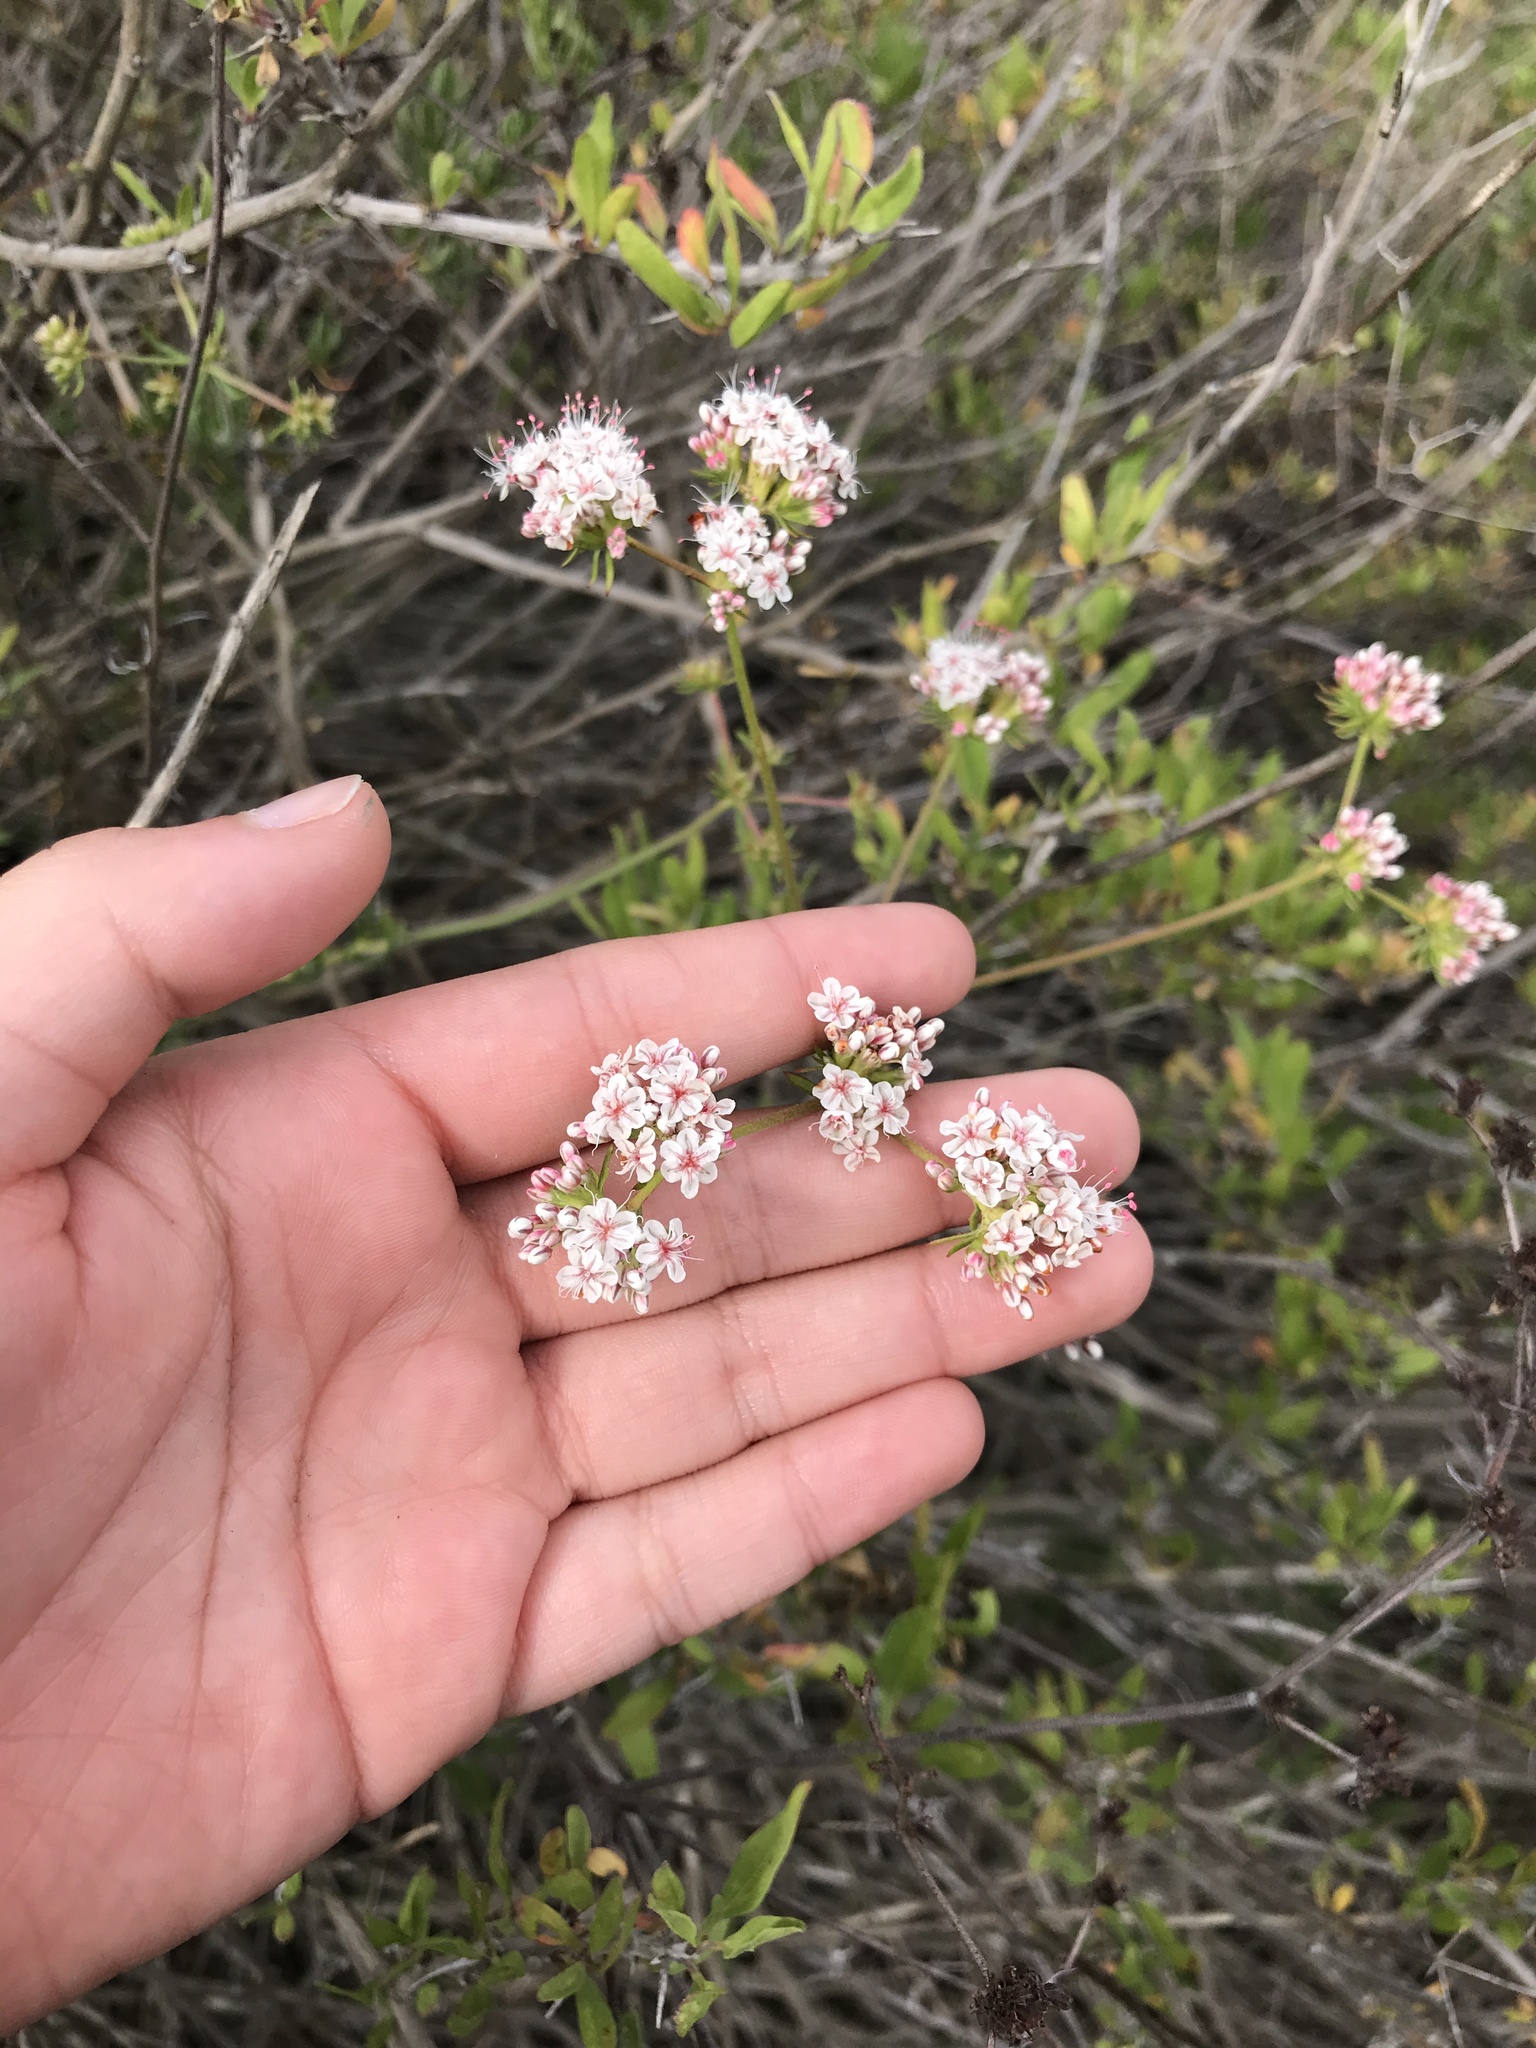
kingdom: Plantae
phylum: Tracheophyta
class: Magnoliopsida
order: Caryophyllales
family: Polygonaceae
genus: Eriogonum
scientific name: Eriogonum fasciculatum
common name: California wild buckwheat
